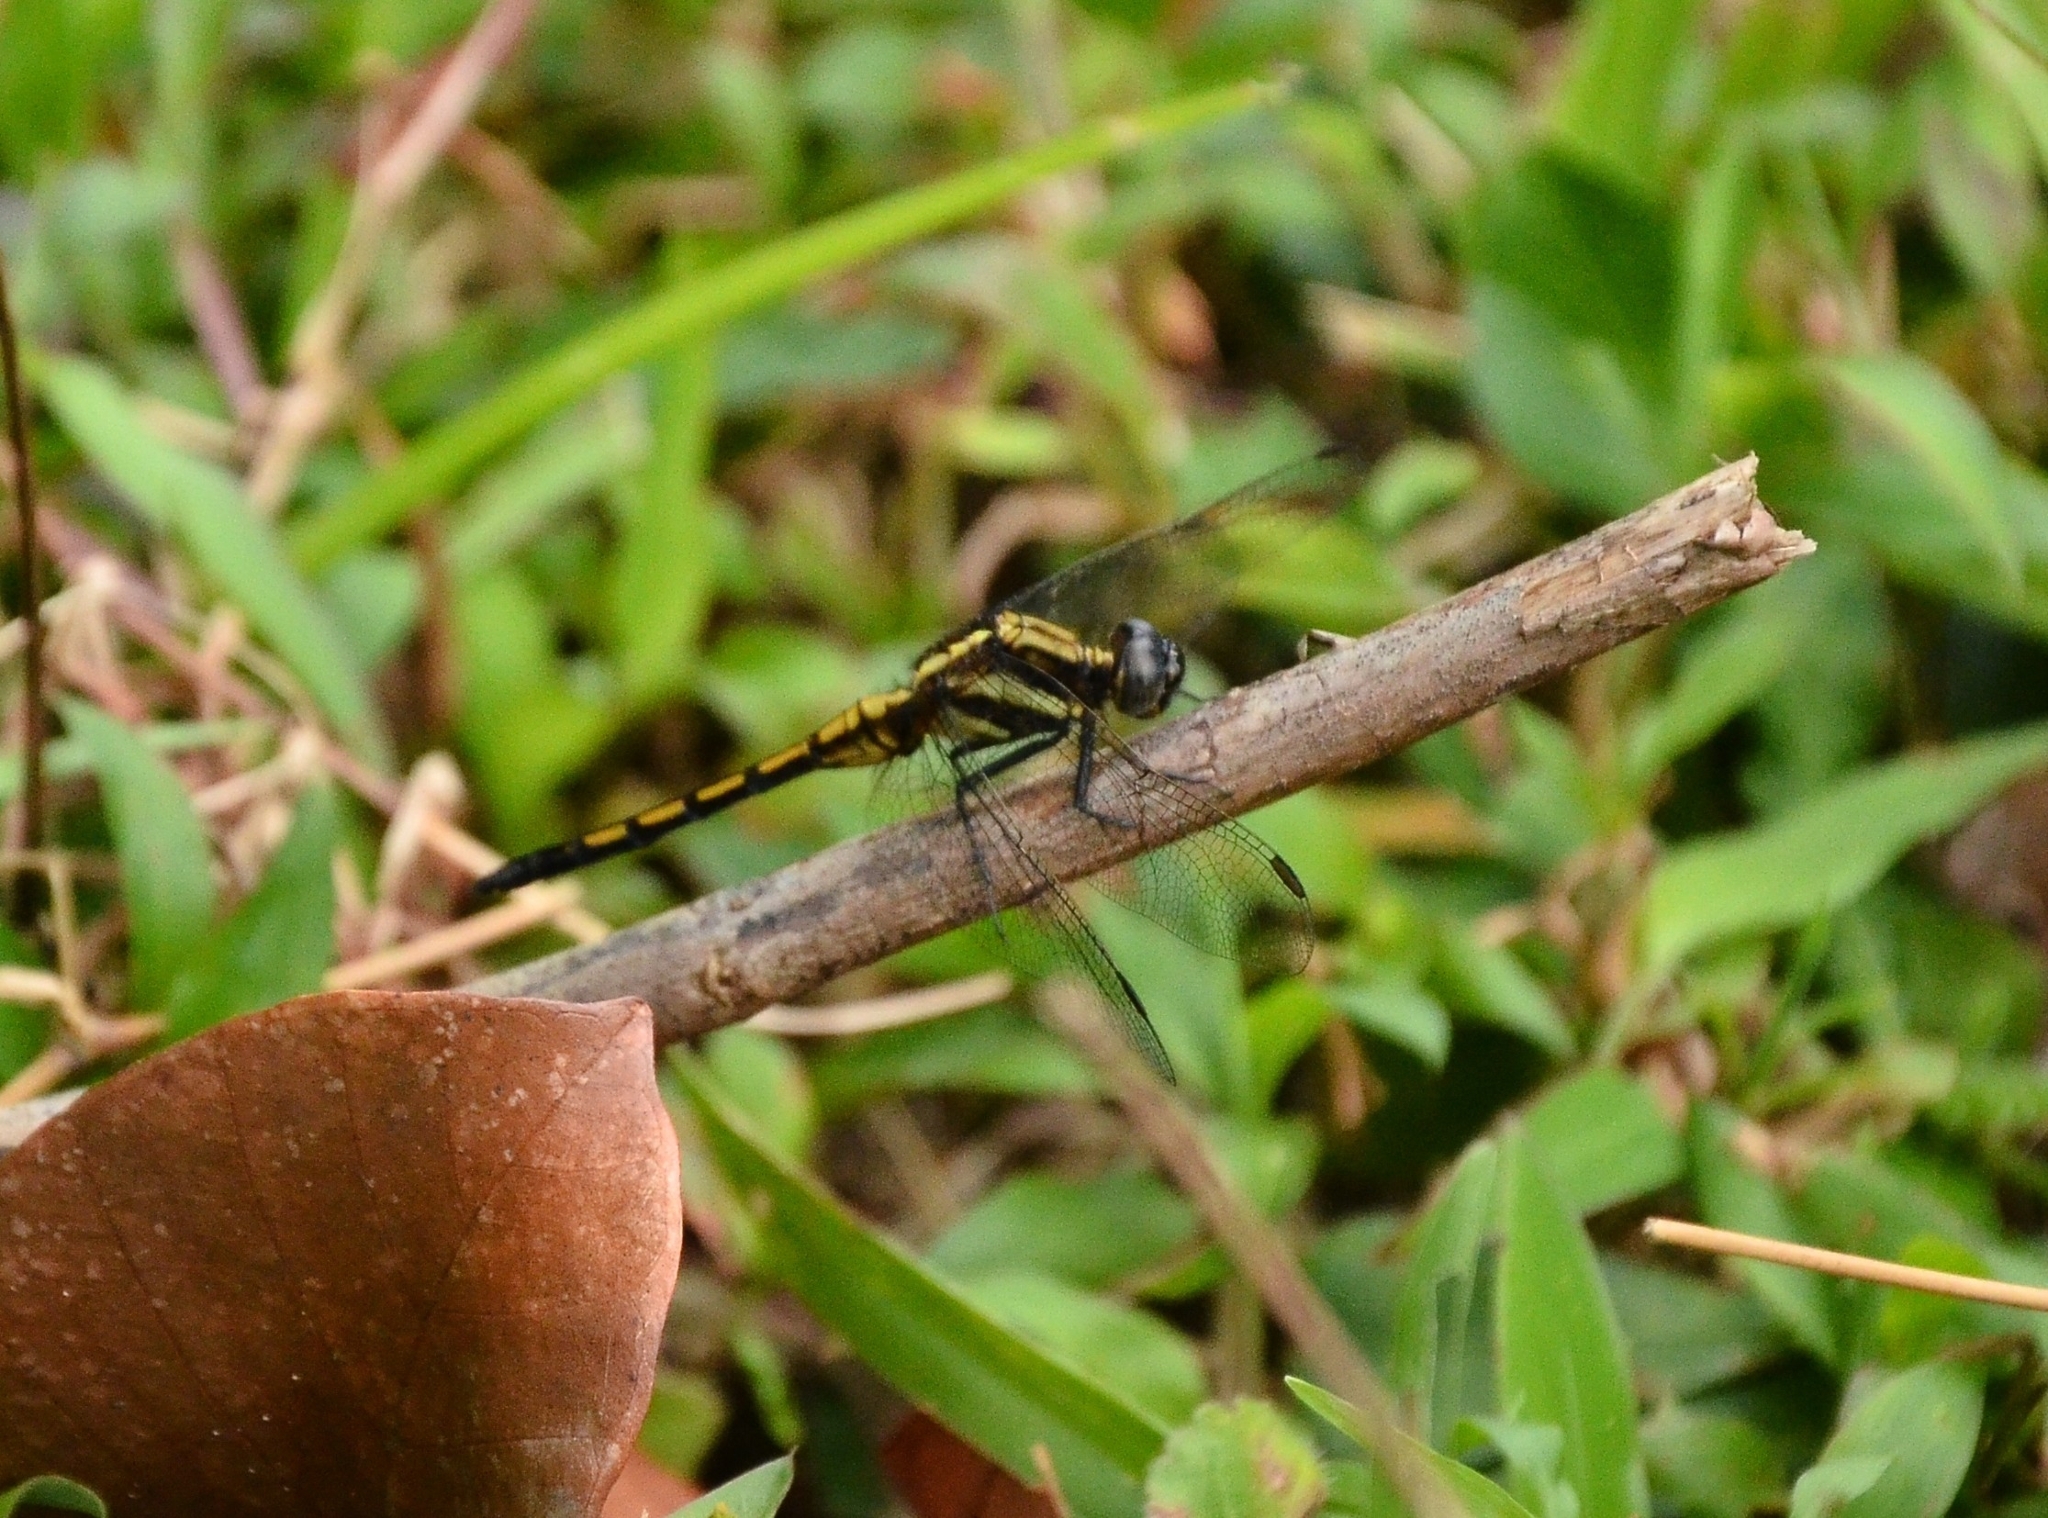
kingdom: Animalia
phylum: Arthropoda
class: Insecta
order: Odonata
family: Libellulidae
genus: Orthetrum
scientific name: Orthetrum glaucum
